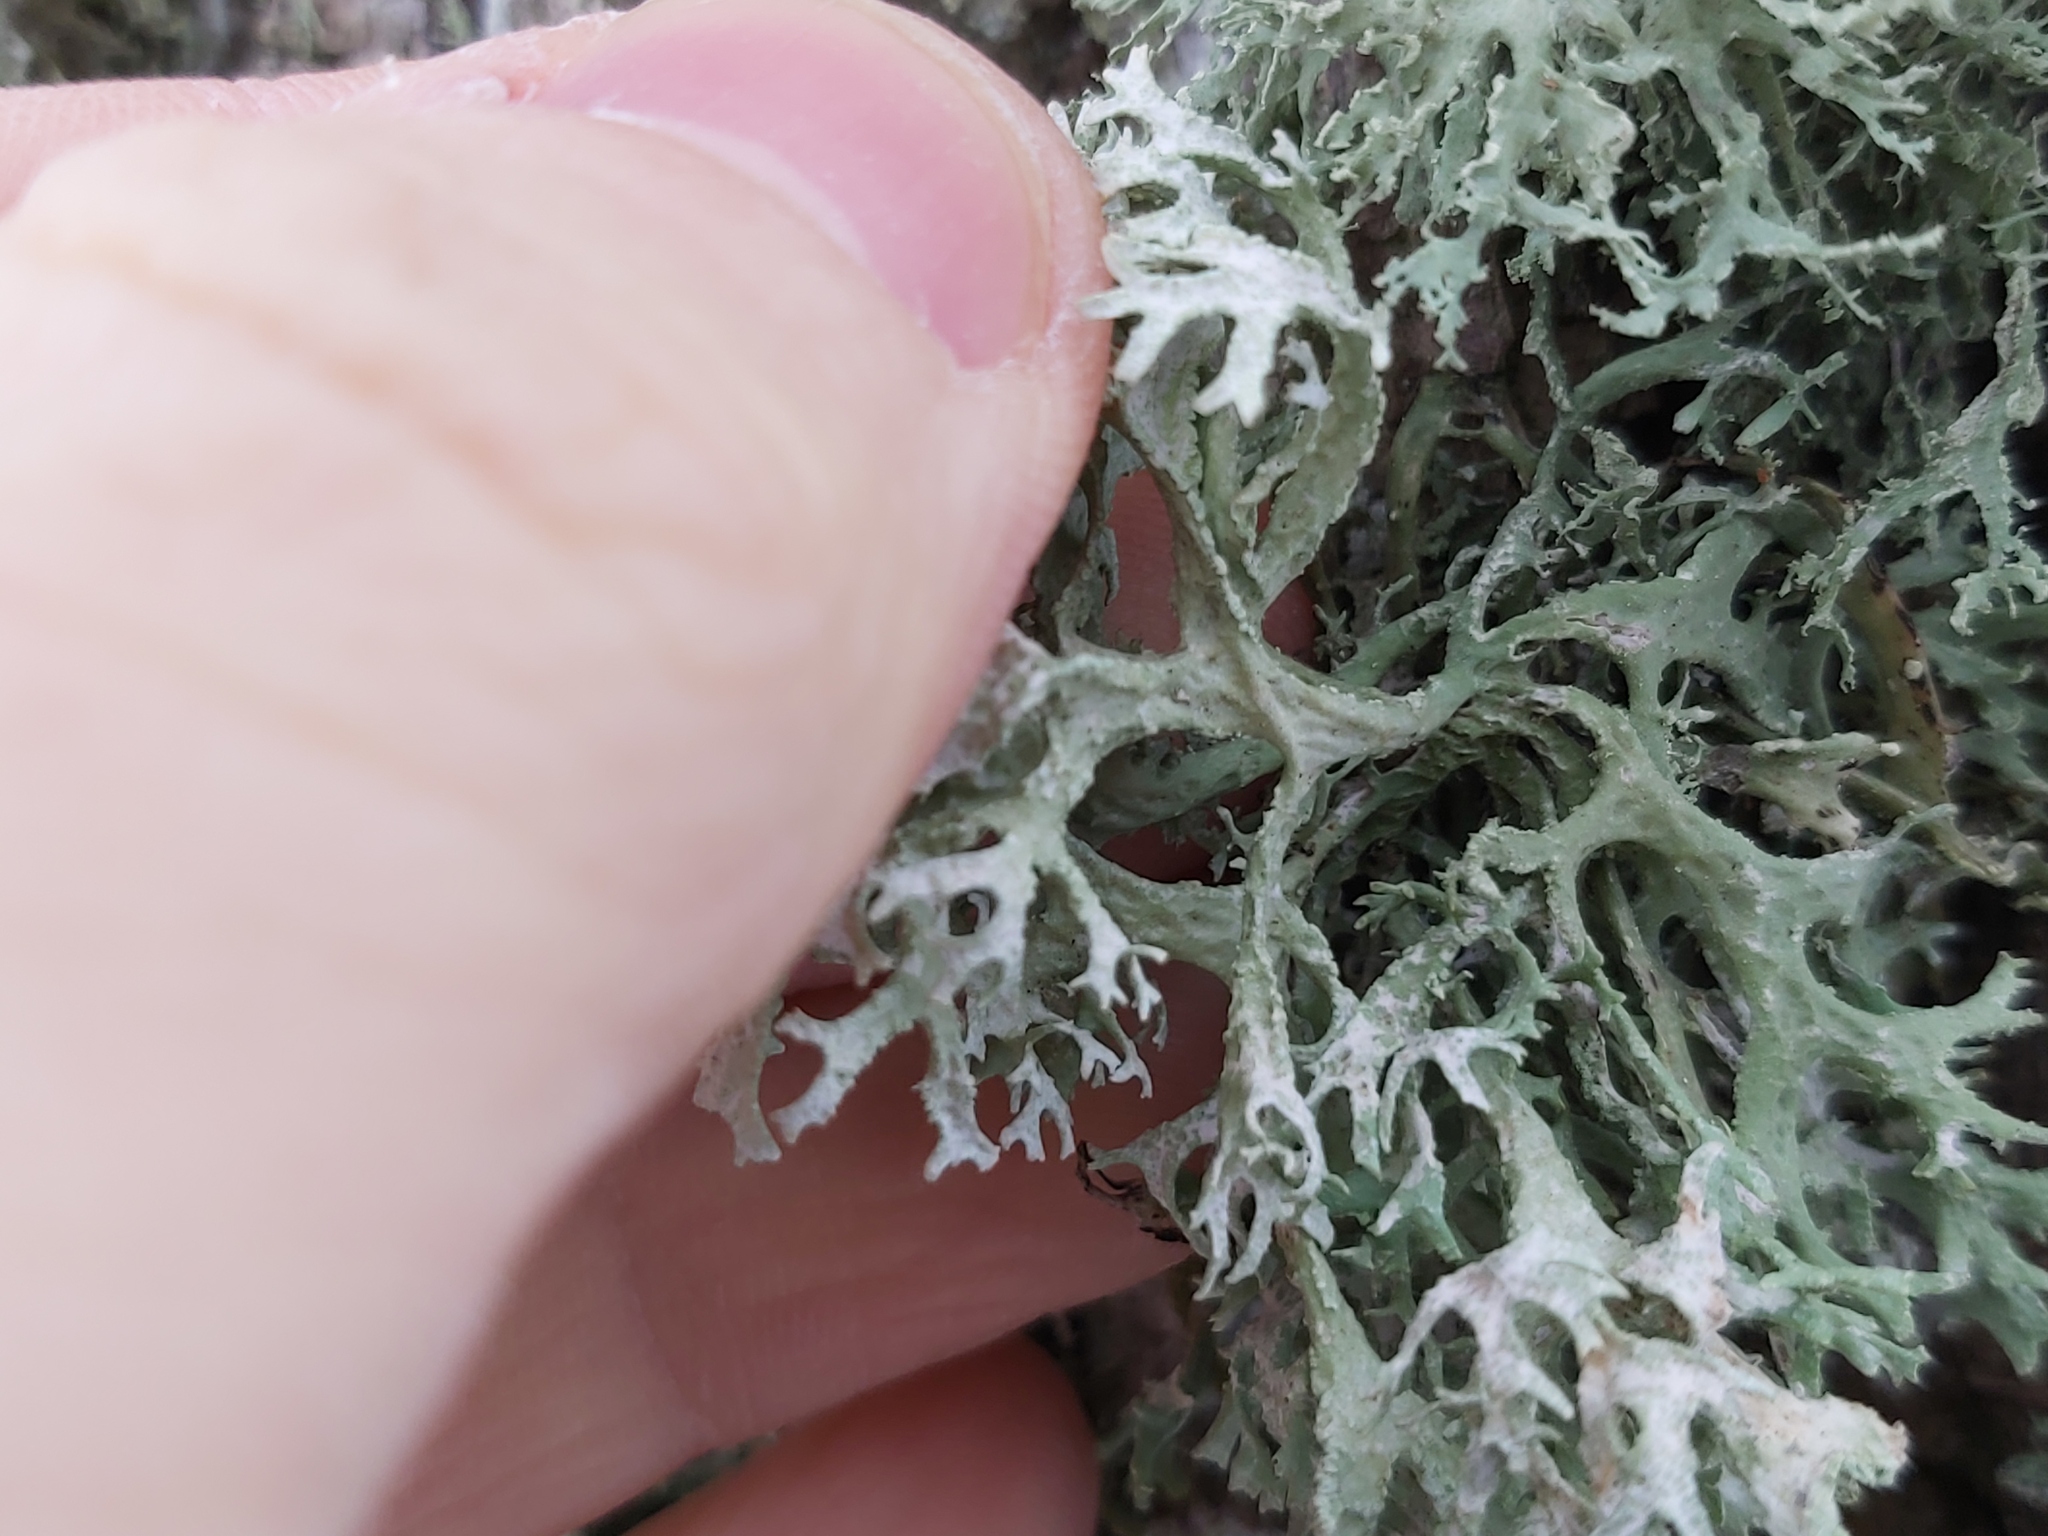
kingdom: Fungi
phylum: Ascomycota
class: Lecanoromycetes
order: Lecanorales
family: Parmeliaceae
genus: Evernia
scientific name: Evernia prunastri
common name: Oak moss
